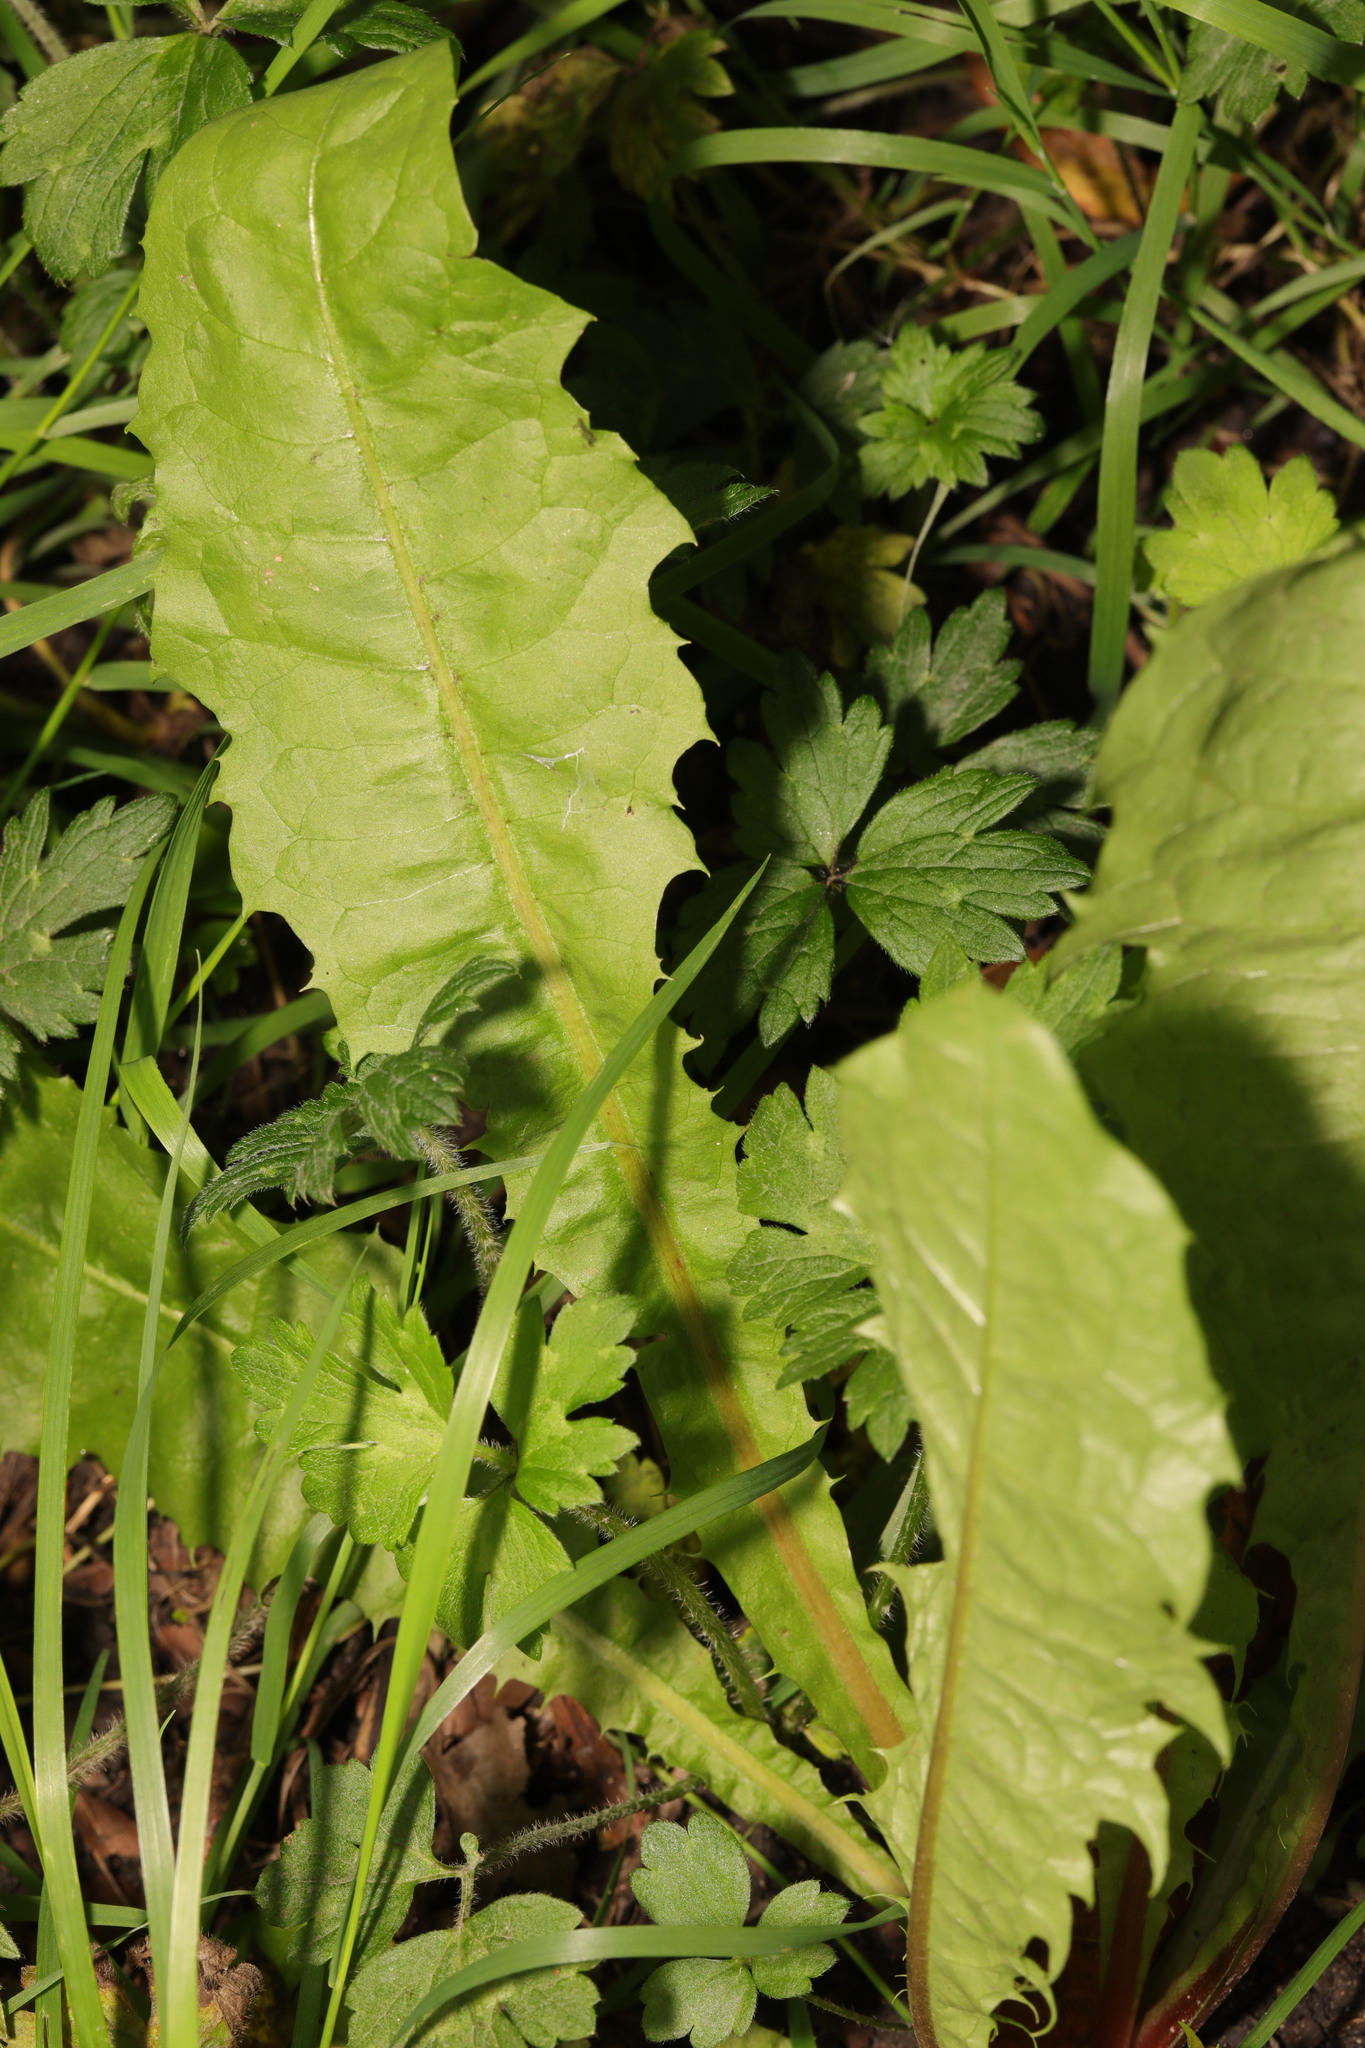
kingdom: Plantae
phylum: Tracheophyta
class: Magnoliopsida
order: Asterales
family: Asteraceae
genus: Taraxacum
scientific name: Taraxacum officinale
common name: Common dandelion
